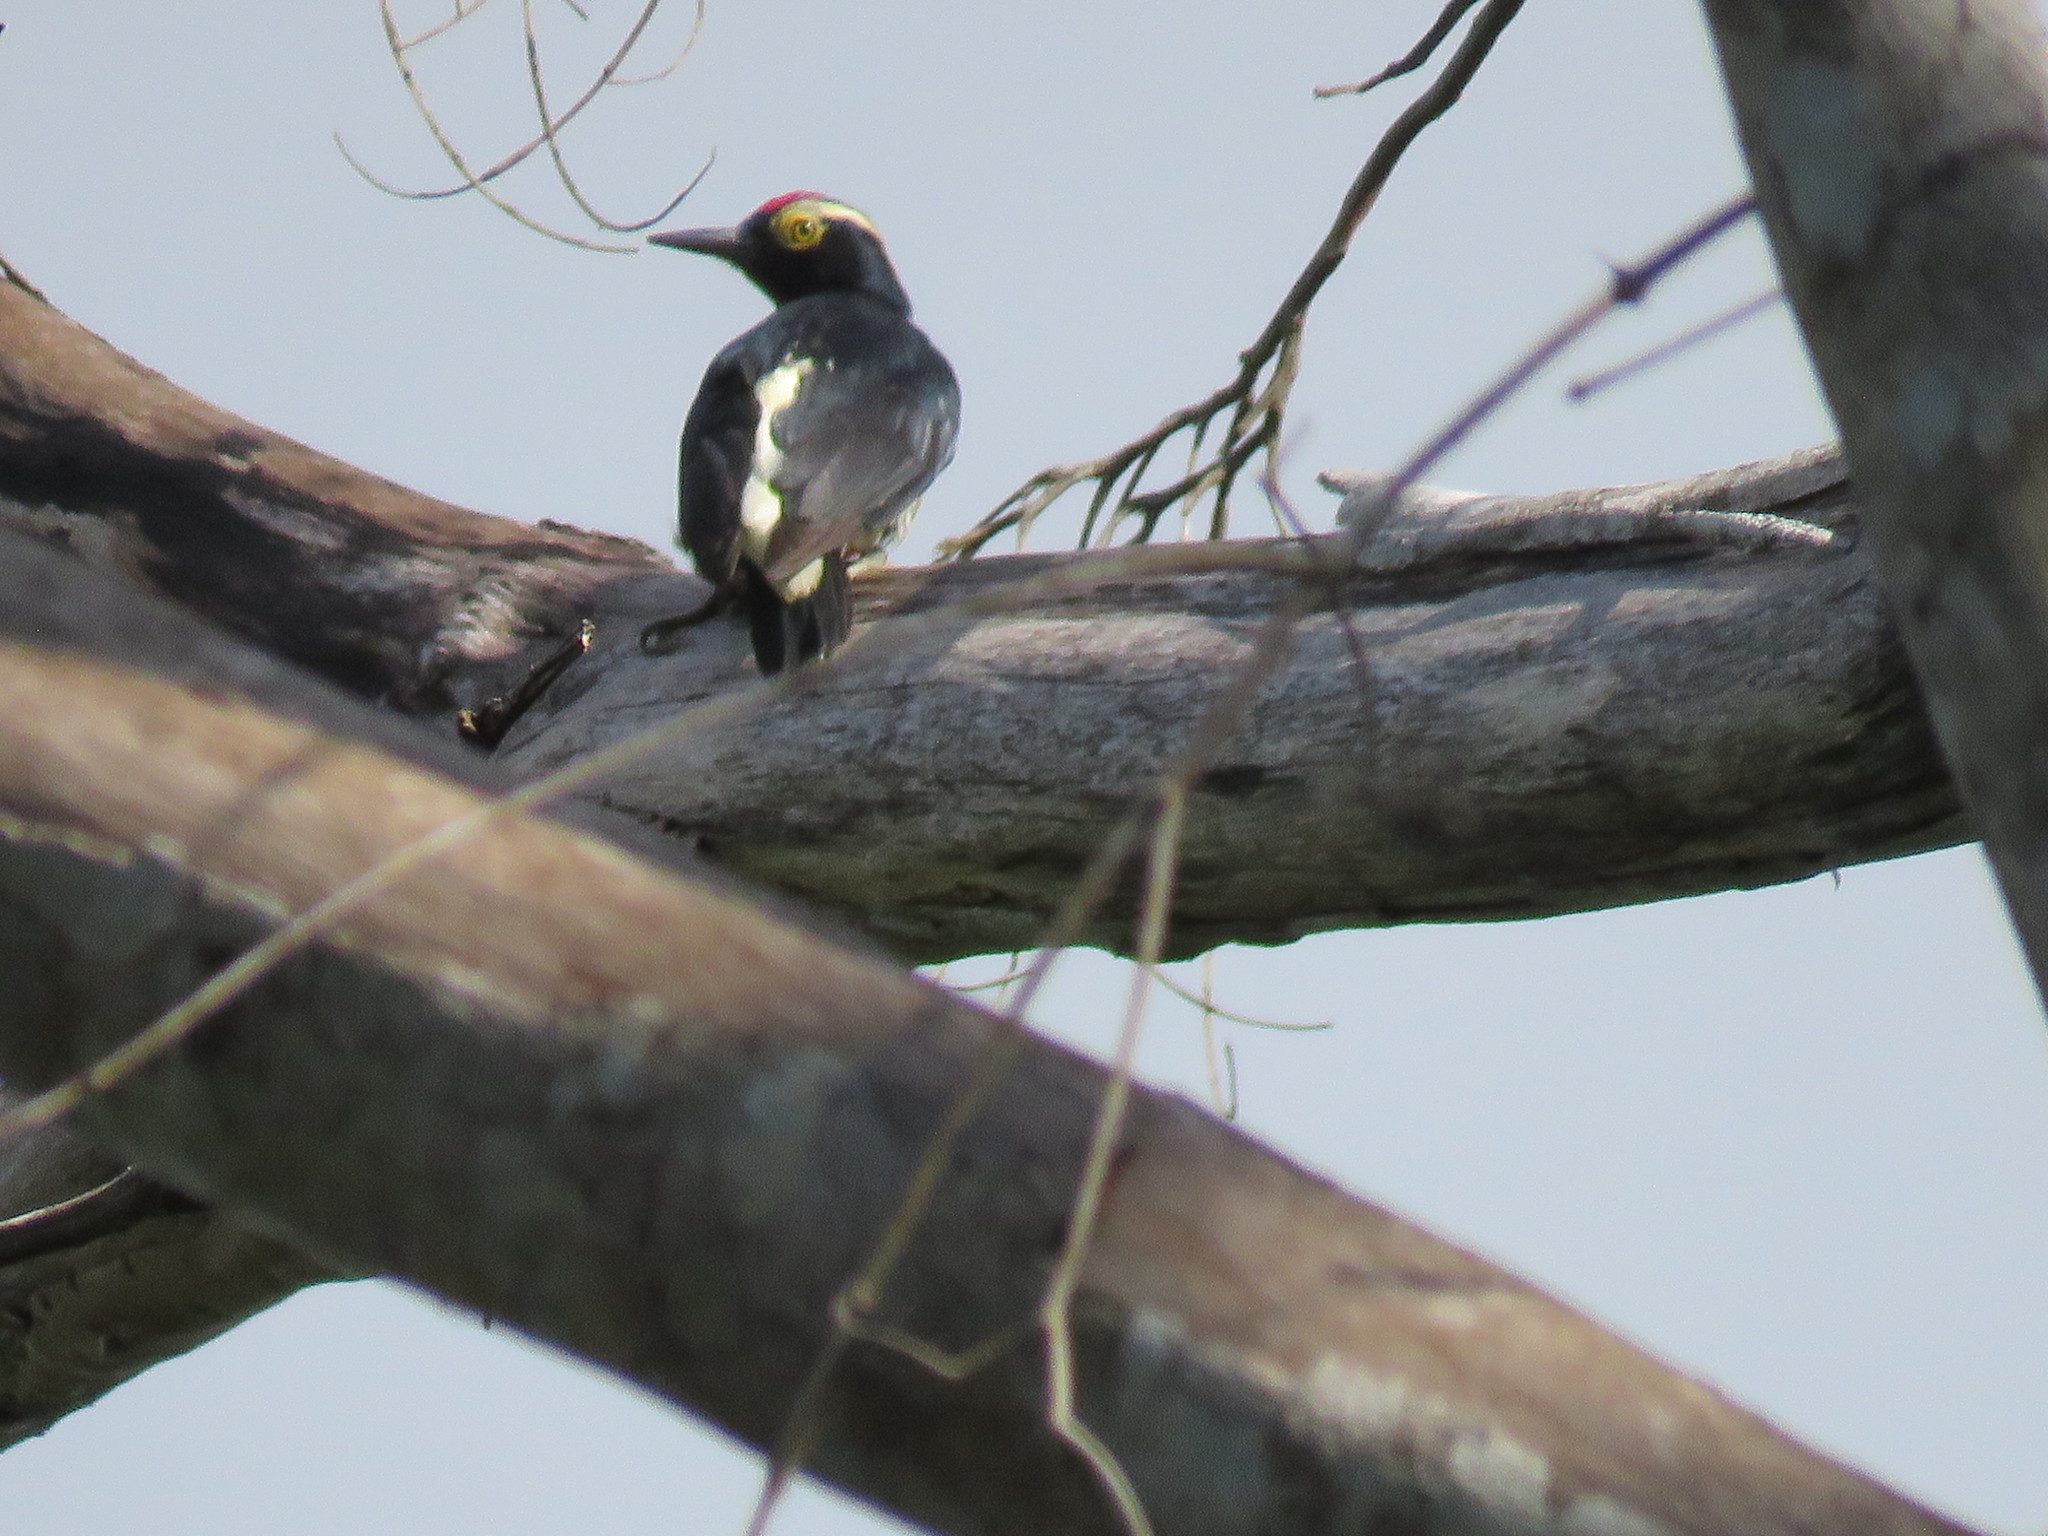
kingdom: Animalia
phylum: Chordata
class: Aves
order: Piciformes
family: Picidae
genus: Melanerpes
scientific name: Melanerpes cruentatus
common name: Yellow-tufted woodpecker
